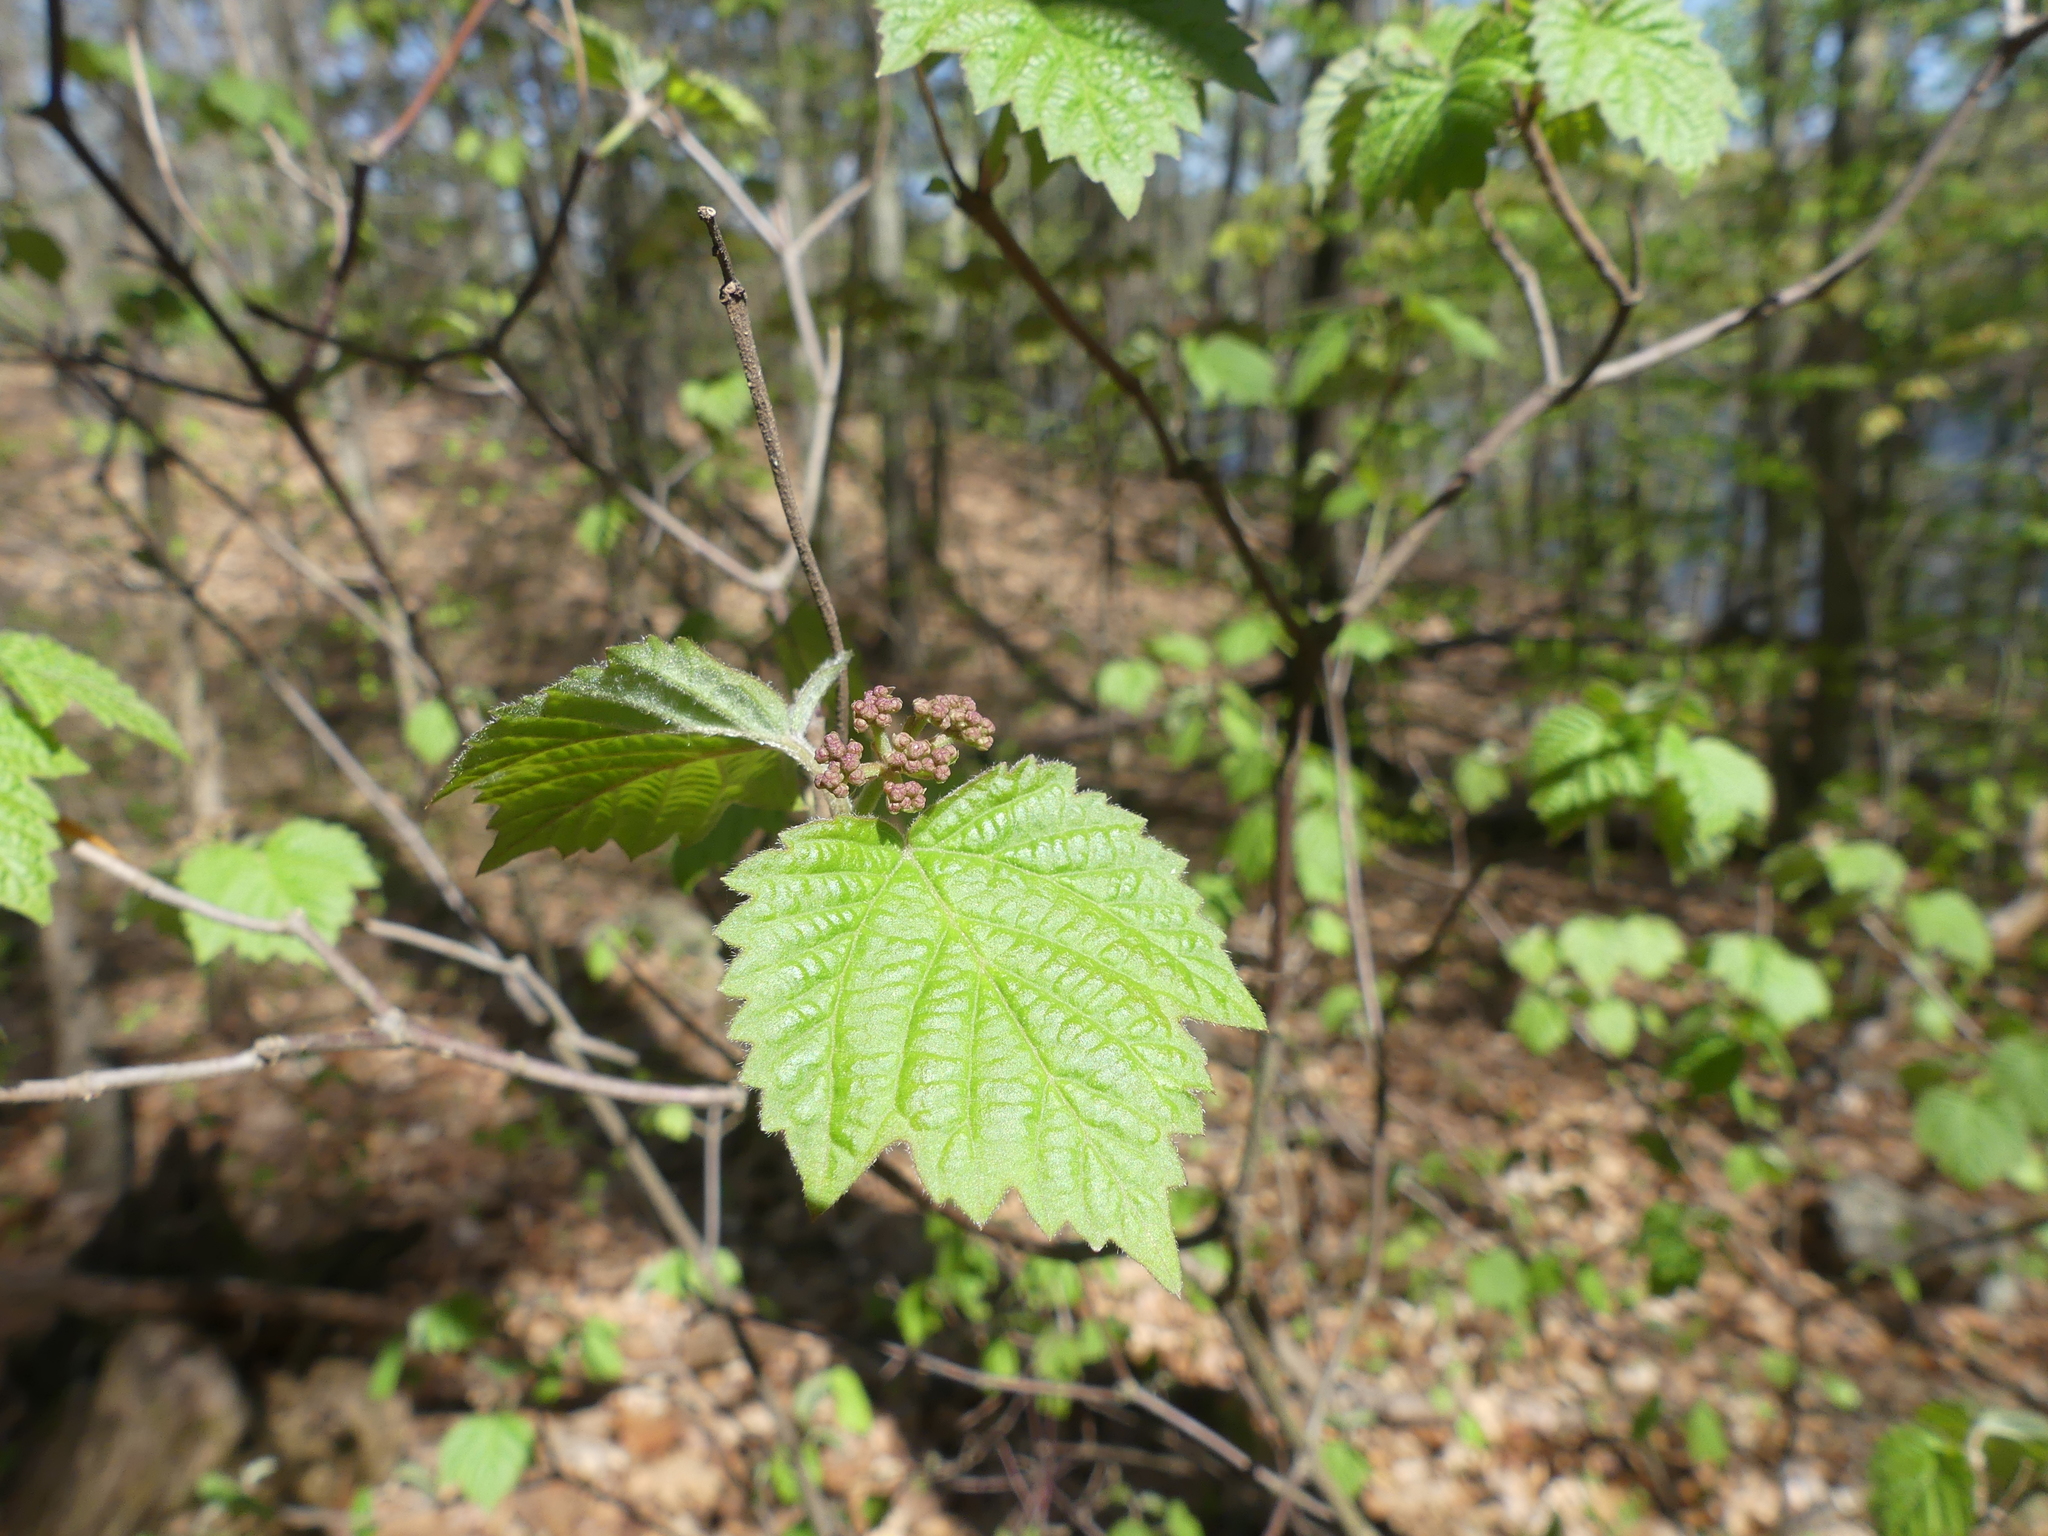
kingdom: Plantae
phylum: Tracheophyta
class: Magnoliopsida
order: Dipsacales
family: Viburnaceae
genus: Viburnum
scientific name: Viburnum acerifolium
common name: Dockmackie
